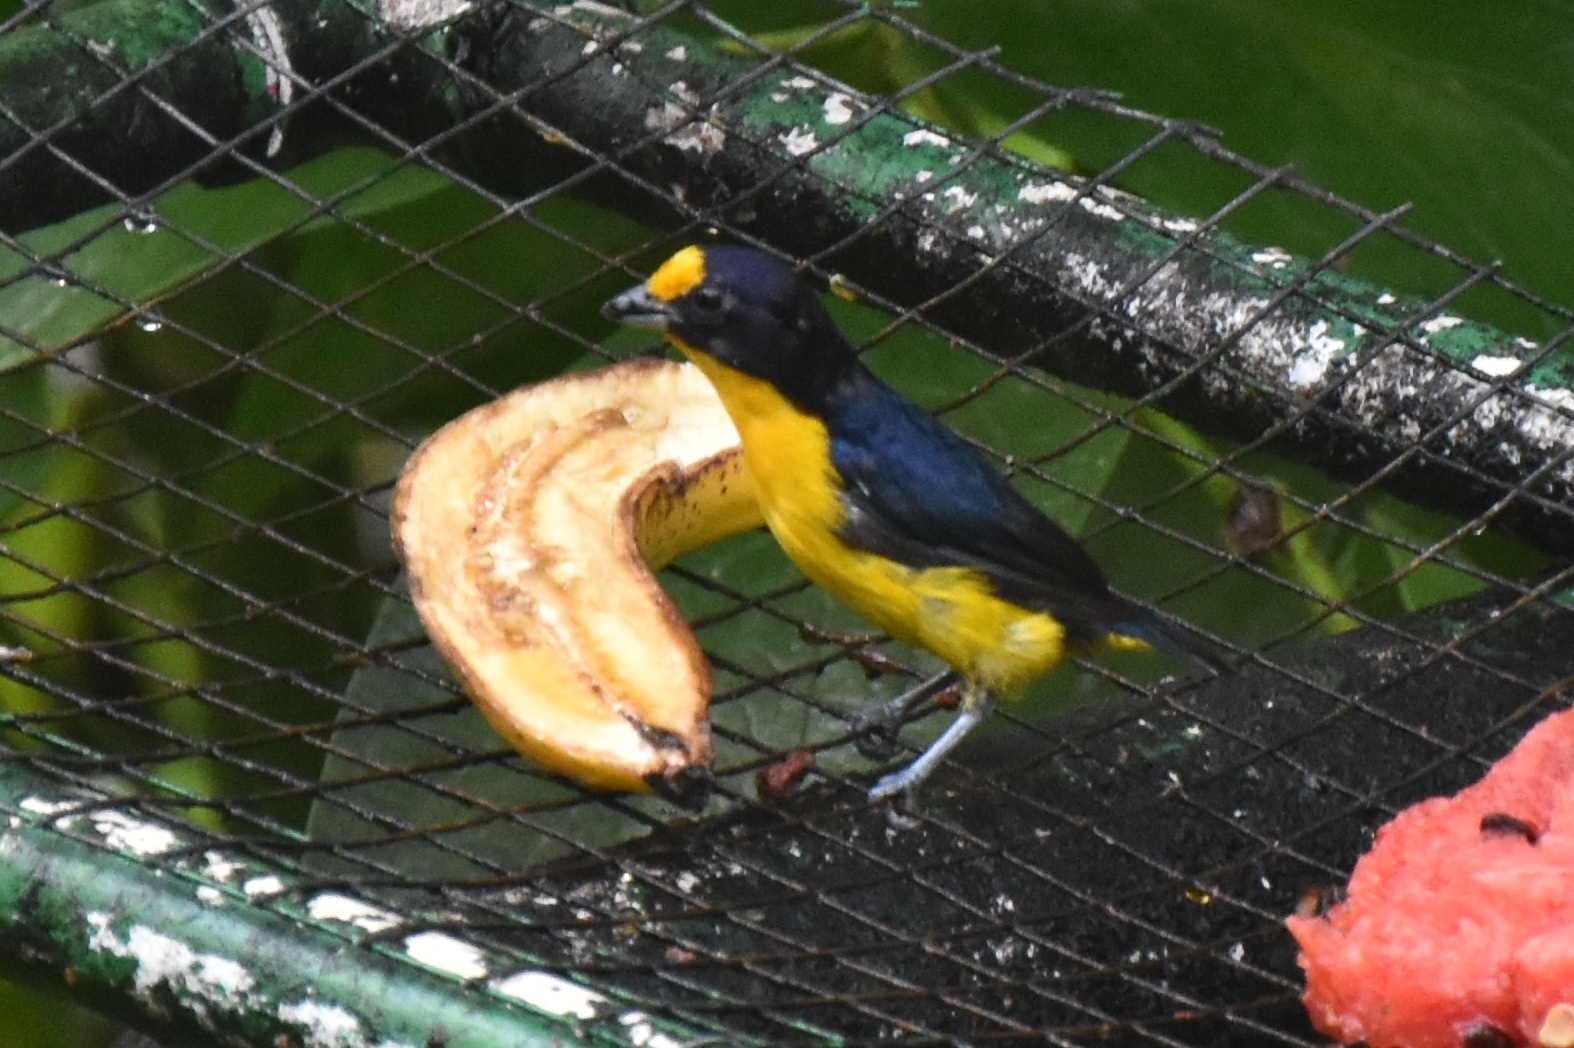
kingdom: Animalia
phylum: Chordata
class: Aves
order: Passeriformes
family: Fringillidae
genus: Euphonia
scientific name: Euphonia violacea
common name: Violaceous euphonia
